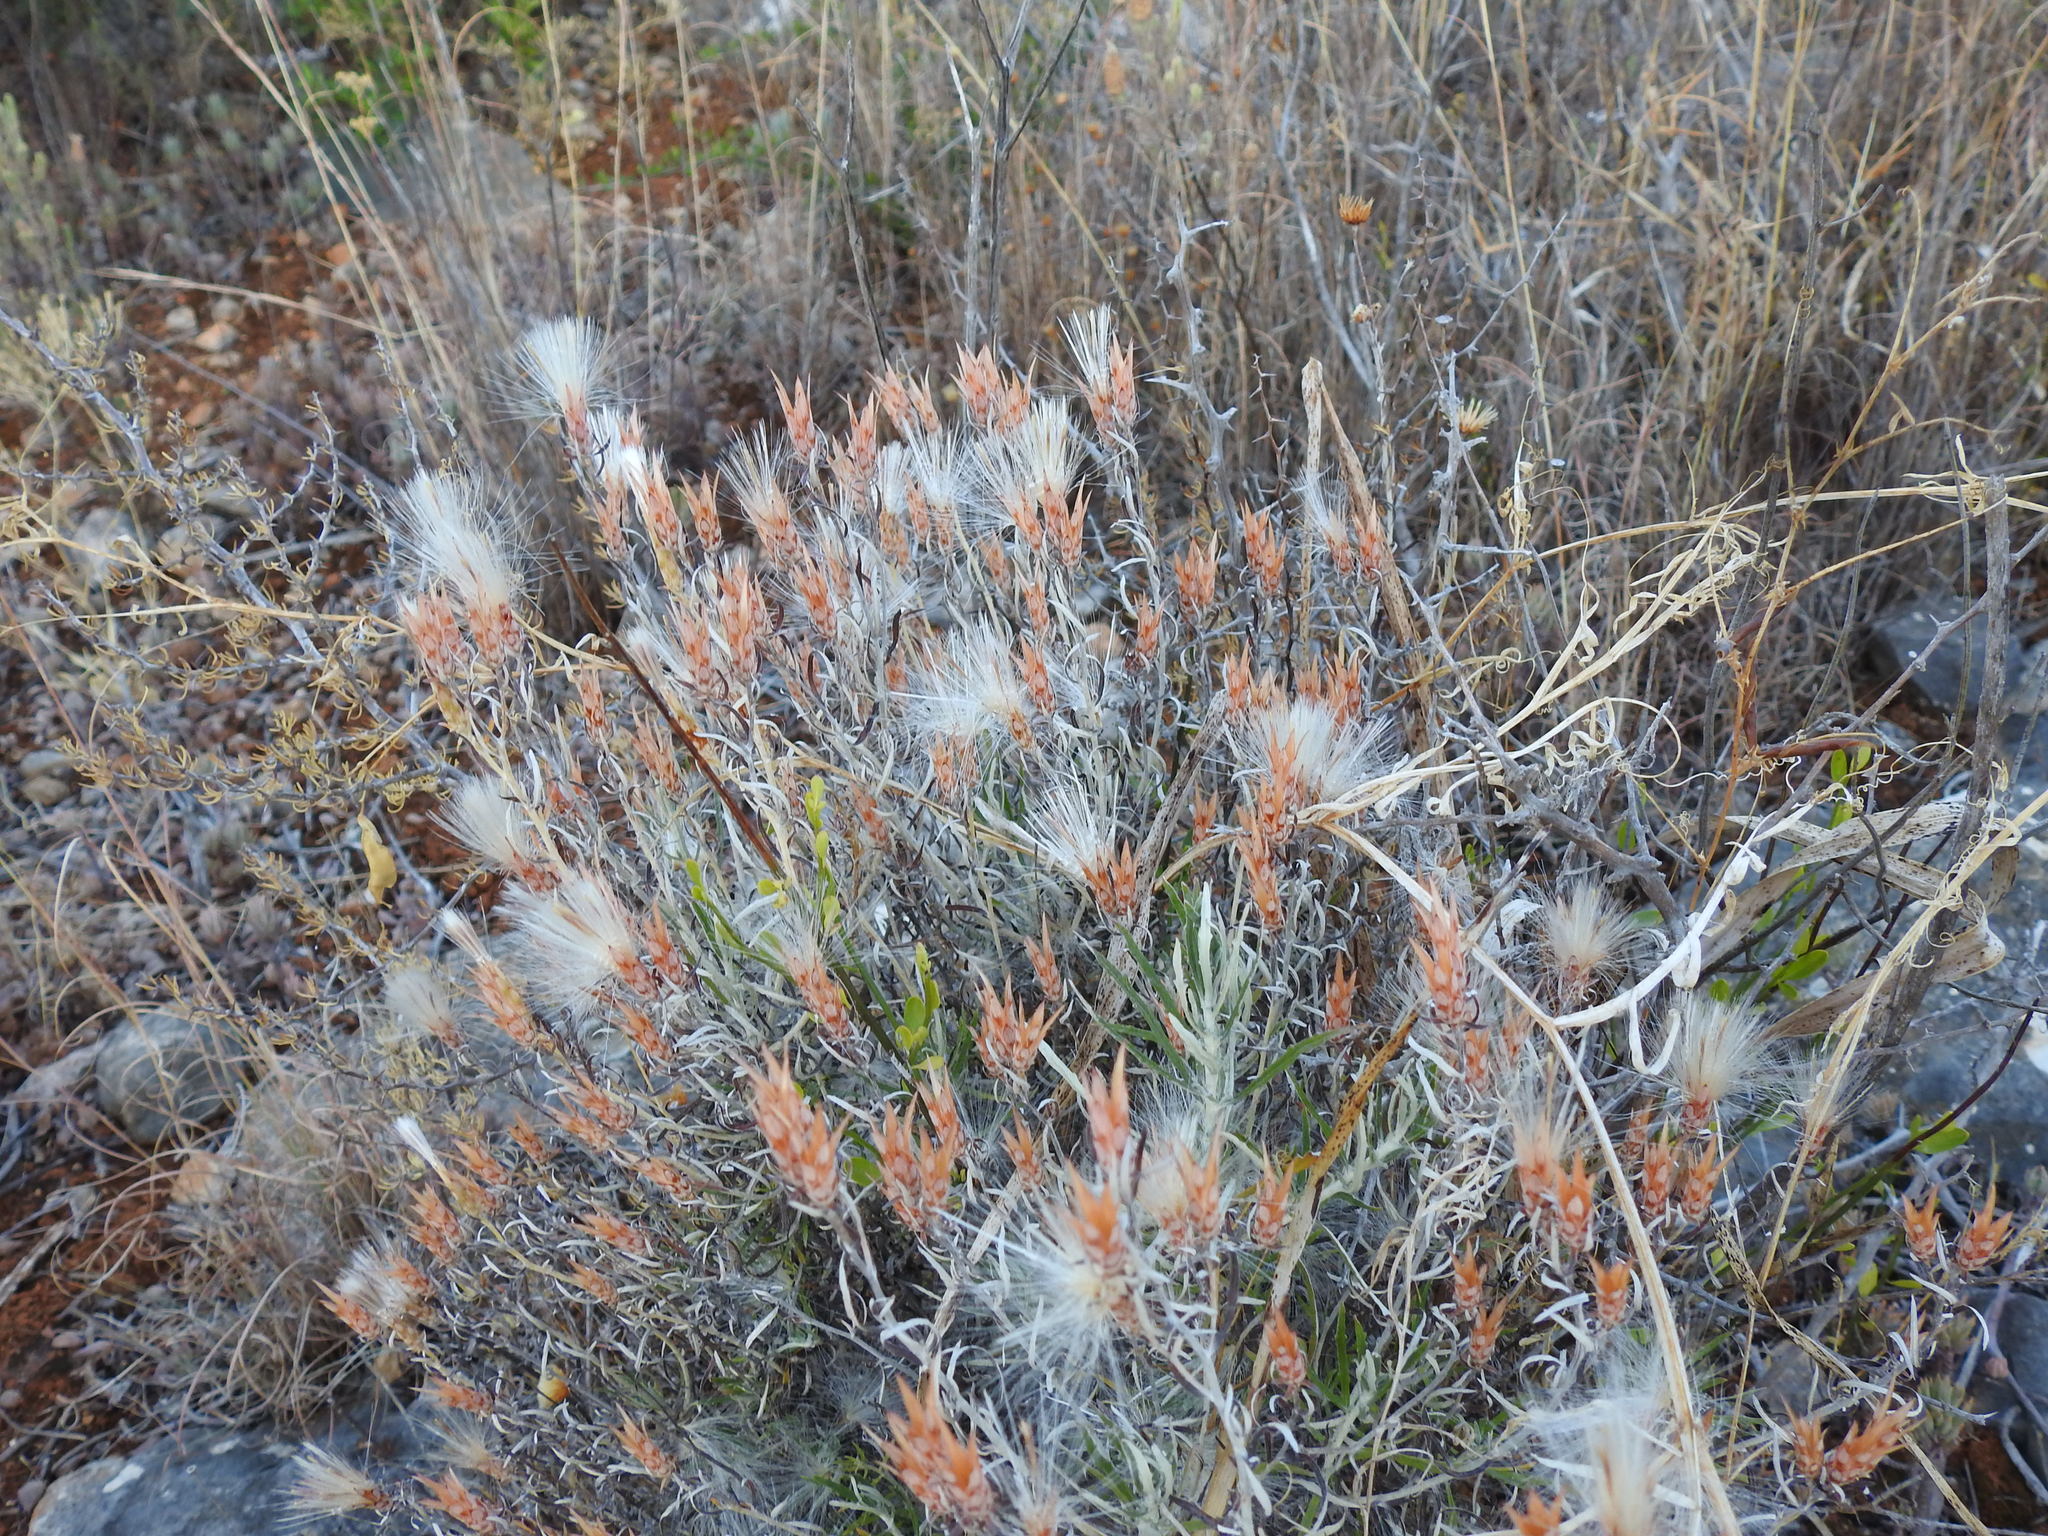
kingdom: Plantae
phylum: Tracheophyta
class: Magnoliopsida
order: Asterales
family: Asteraceae
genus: Staehelina
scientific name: Staehelina dubia
